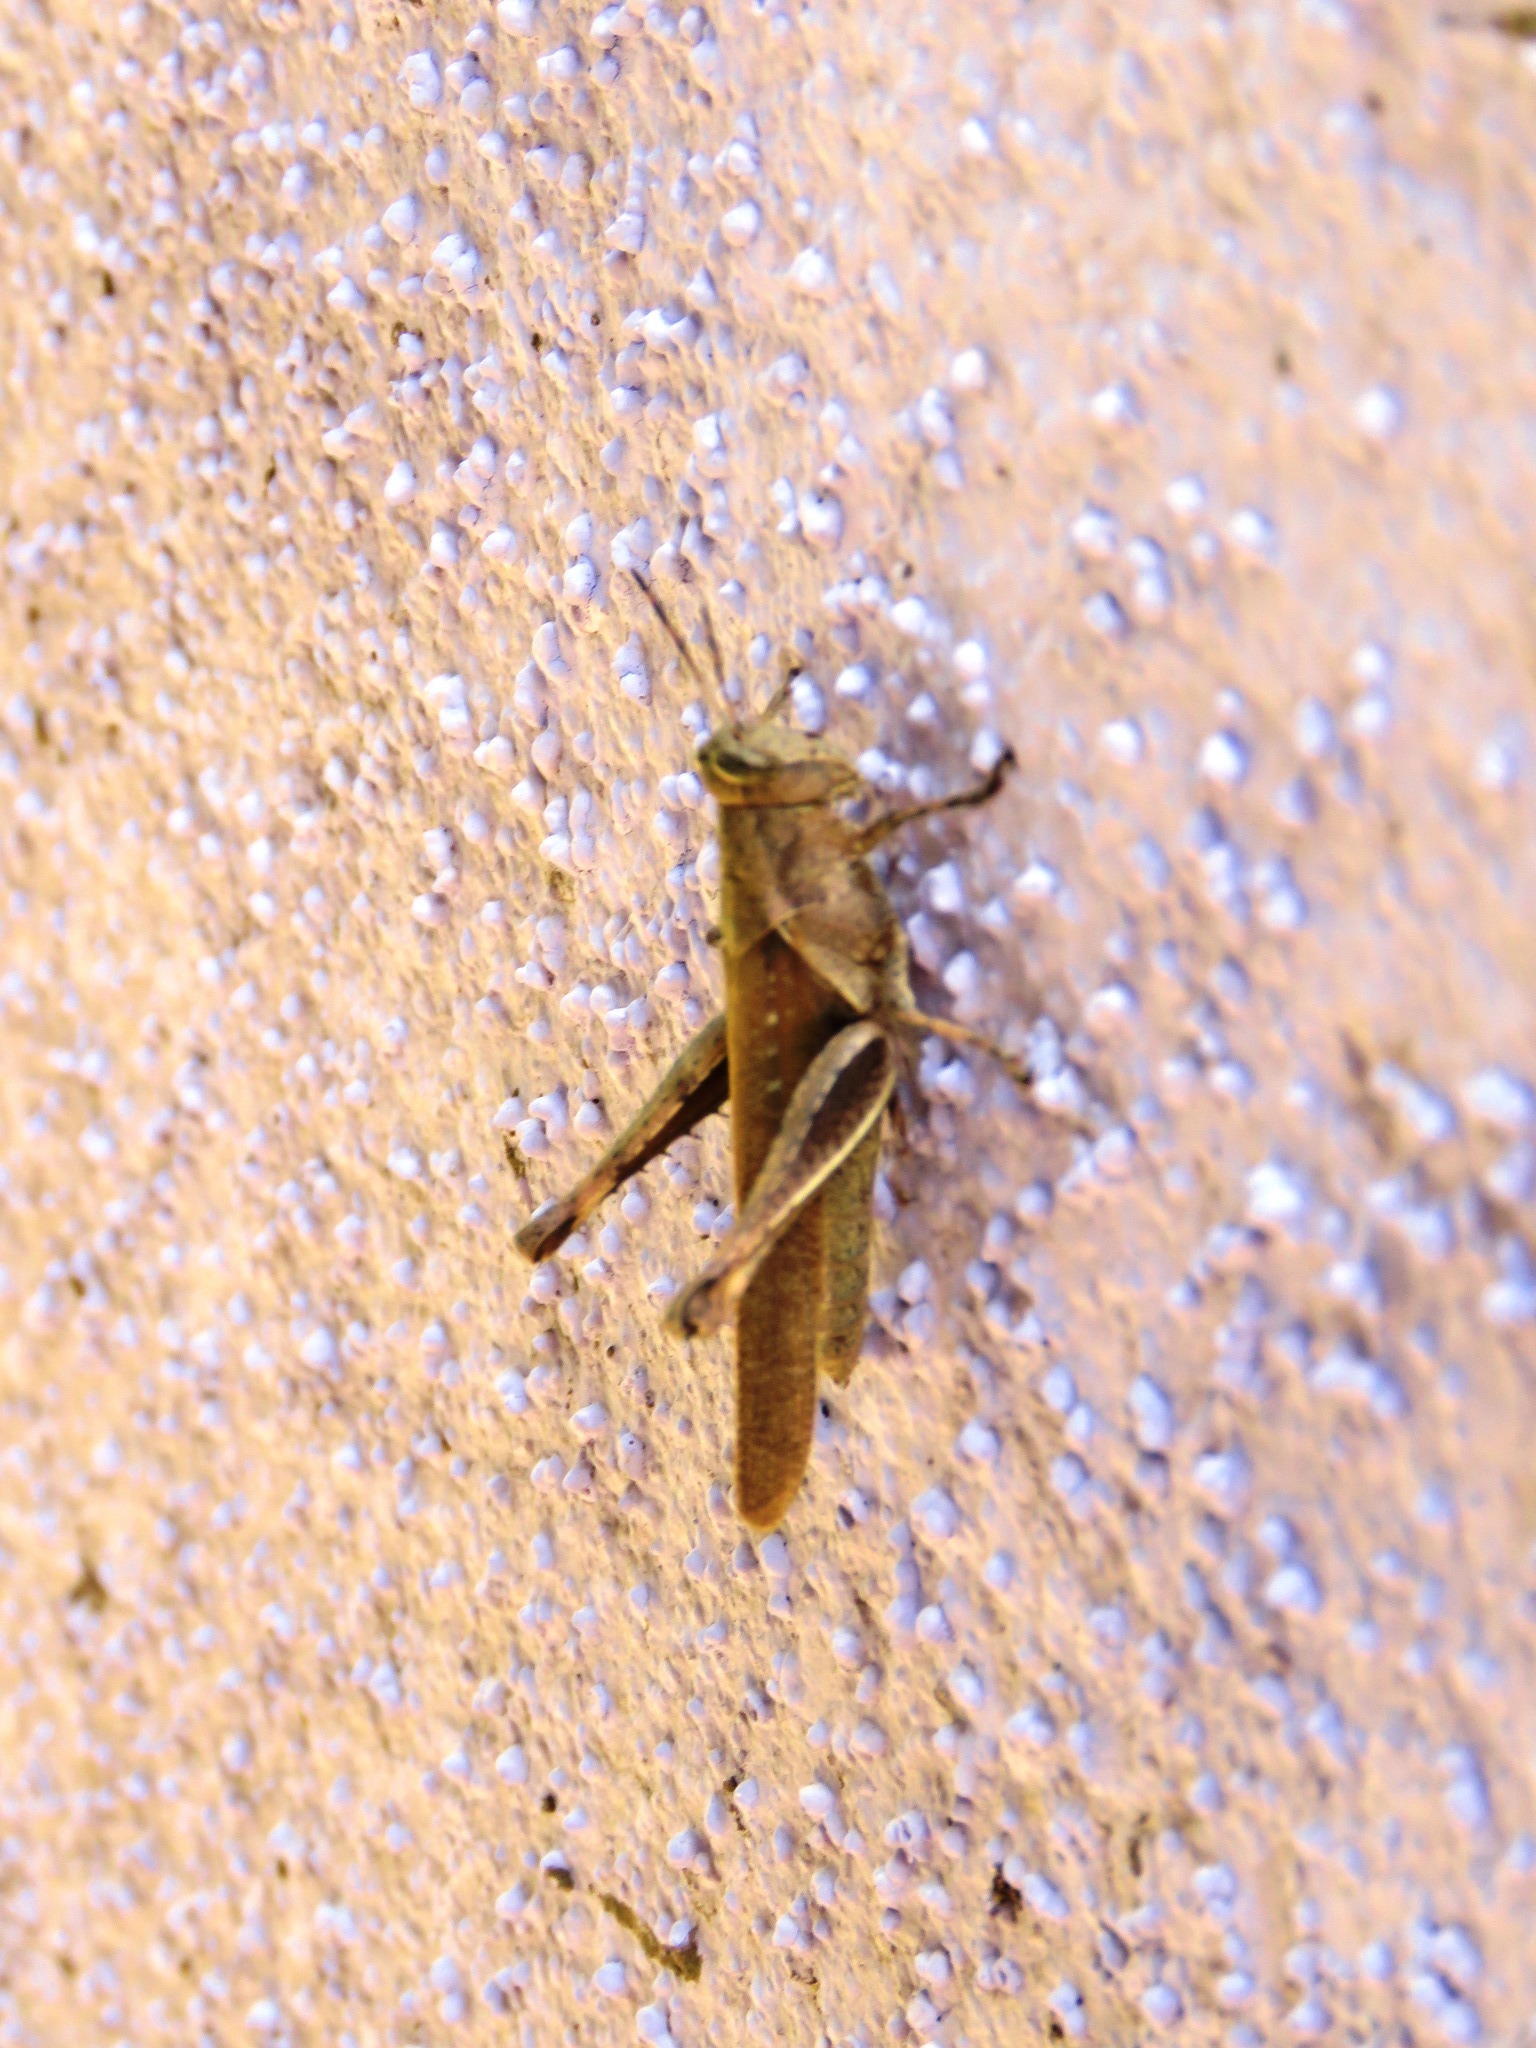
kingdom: Animalia
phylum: Arthropoda
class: Insecta
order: Orthoptera
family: Acrididae
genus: Abracris
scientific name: Abracris flavolineata
